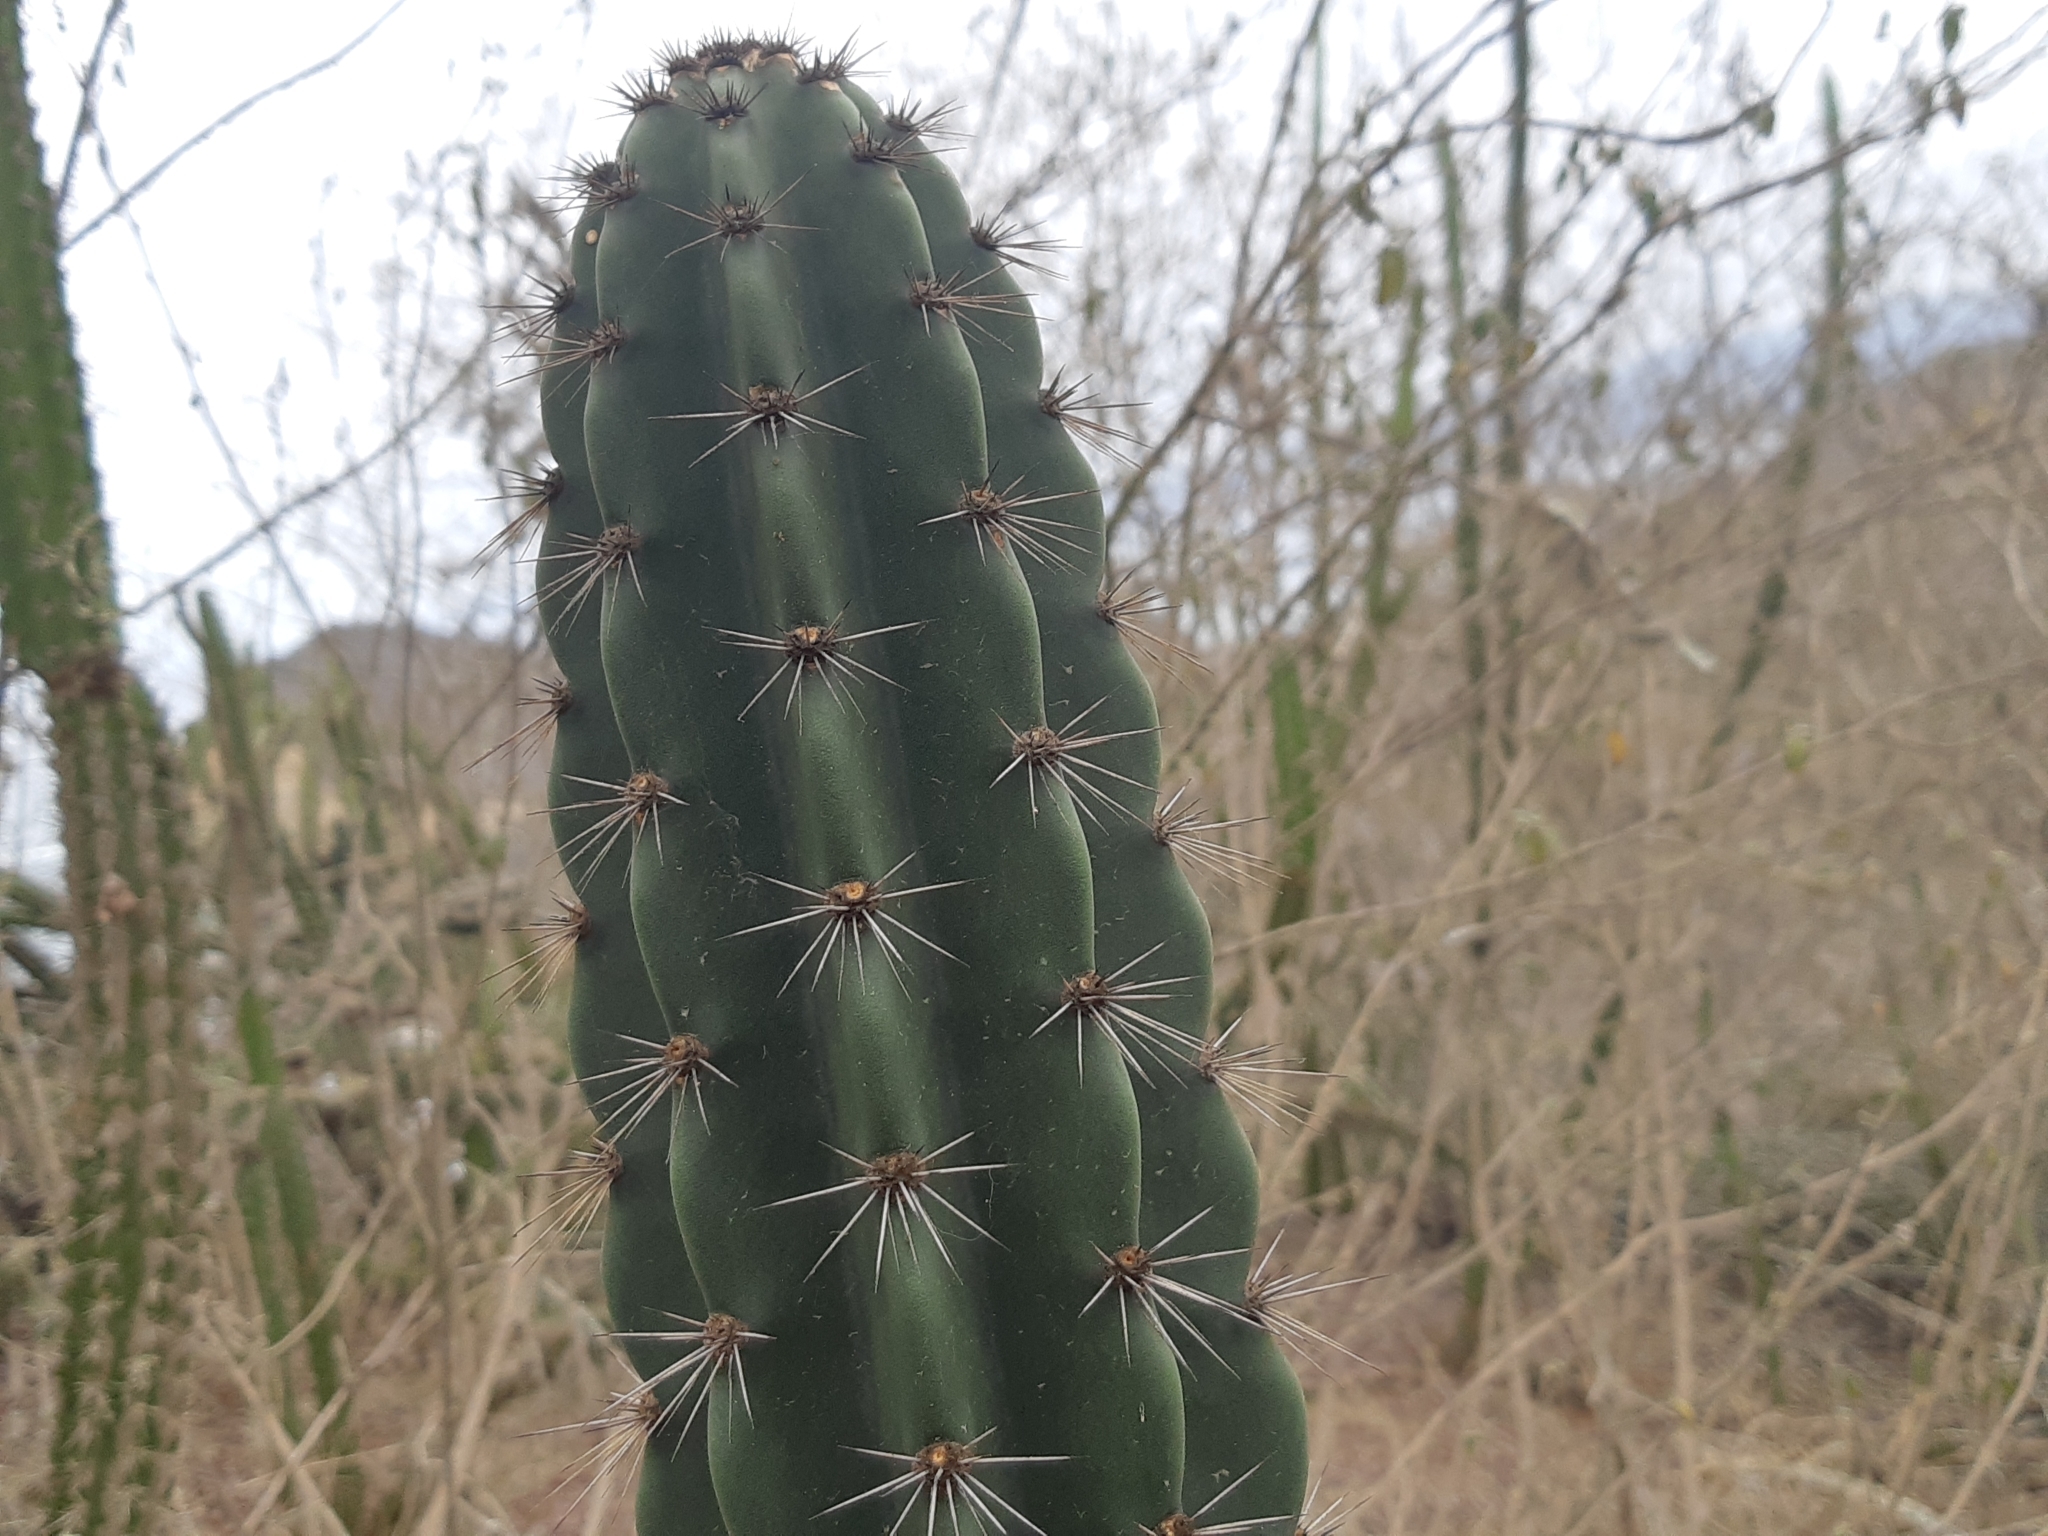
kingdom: Plantae
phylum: Tracheophyta
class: Magnoliopsida
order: Caryophyllales
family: Cactaceae
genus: Armatocereus
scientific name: Armatocereus cartwrightianus
